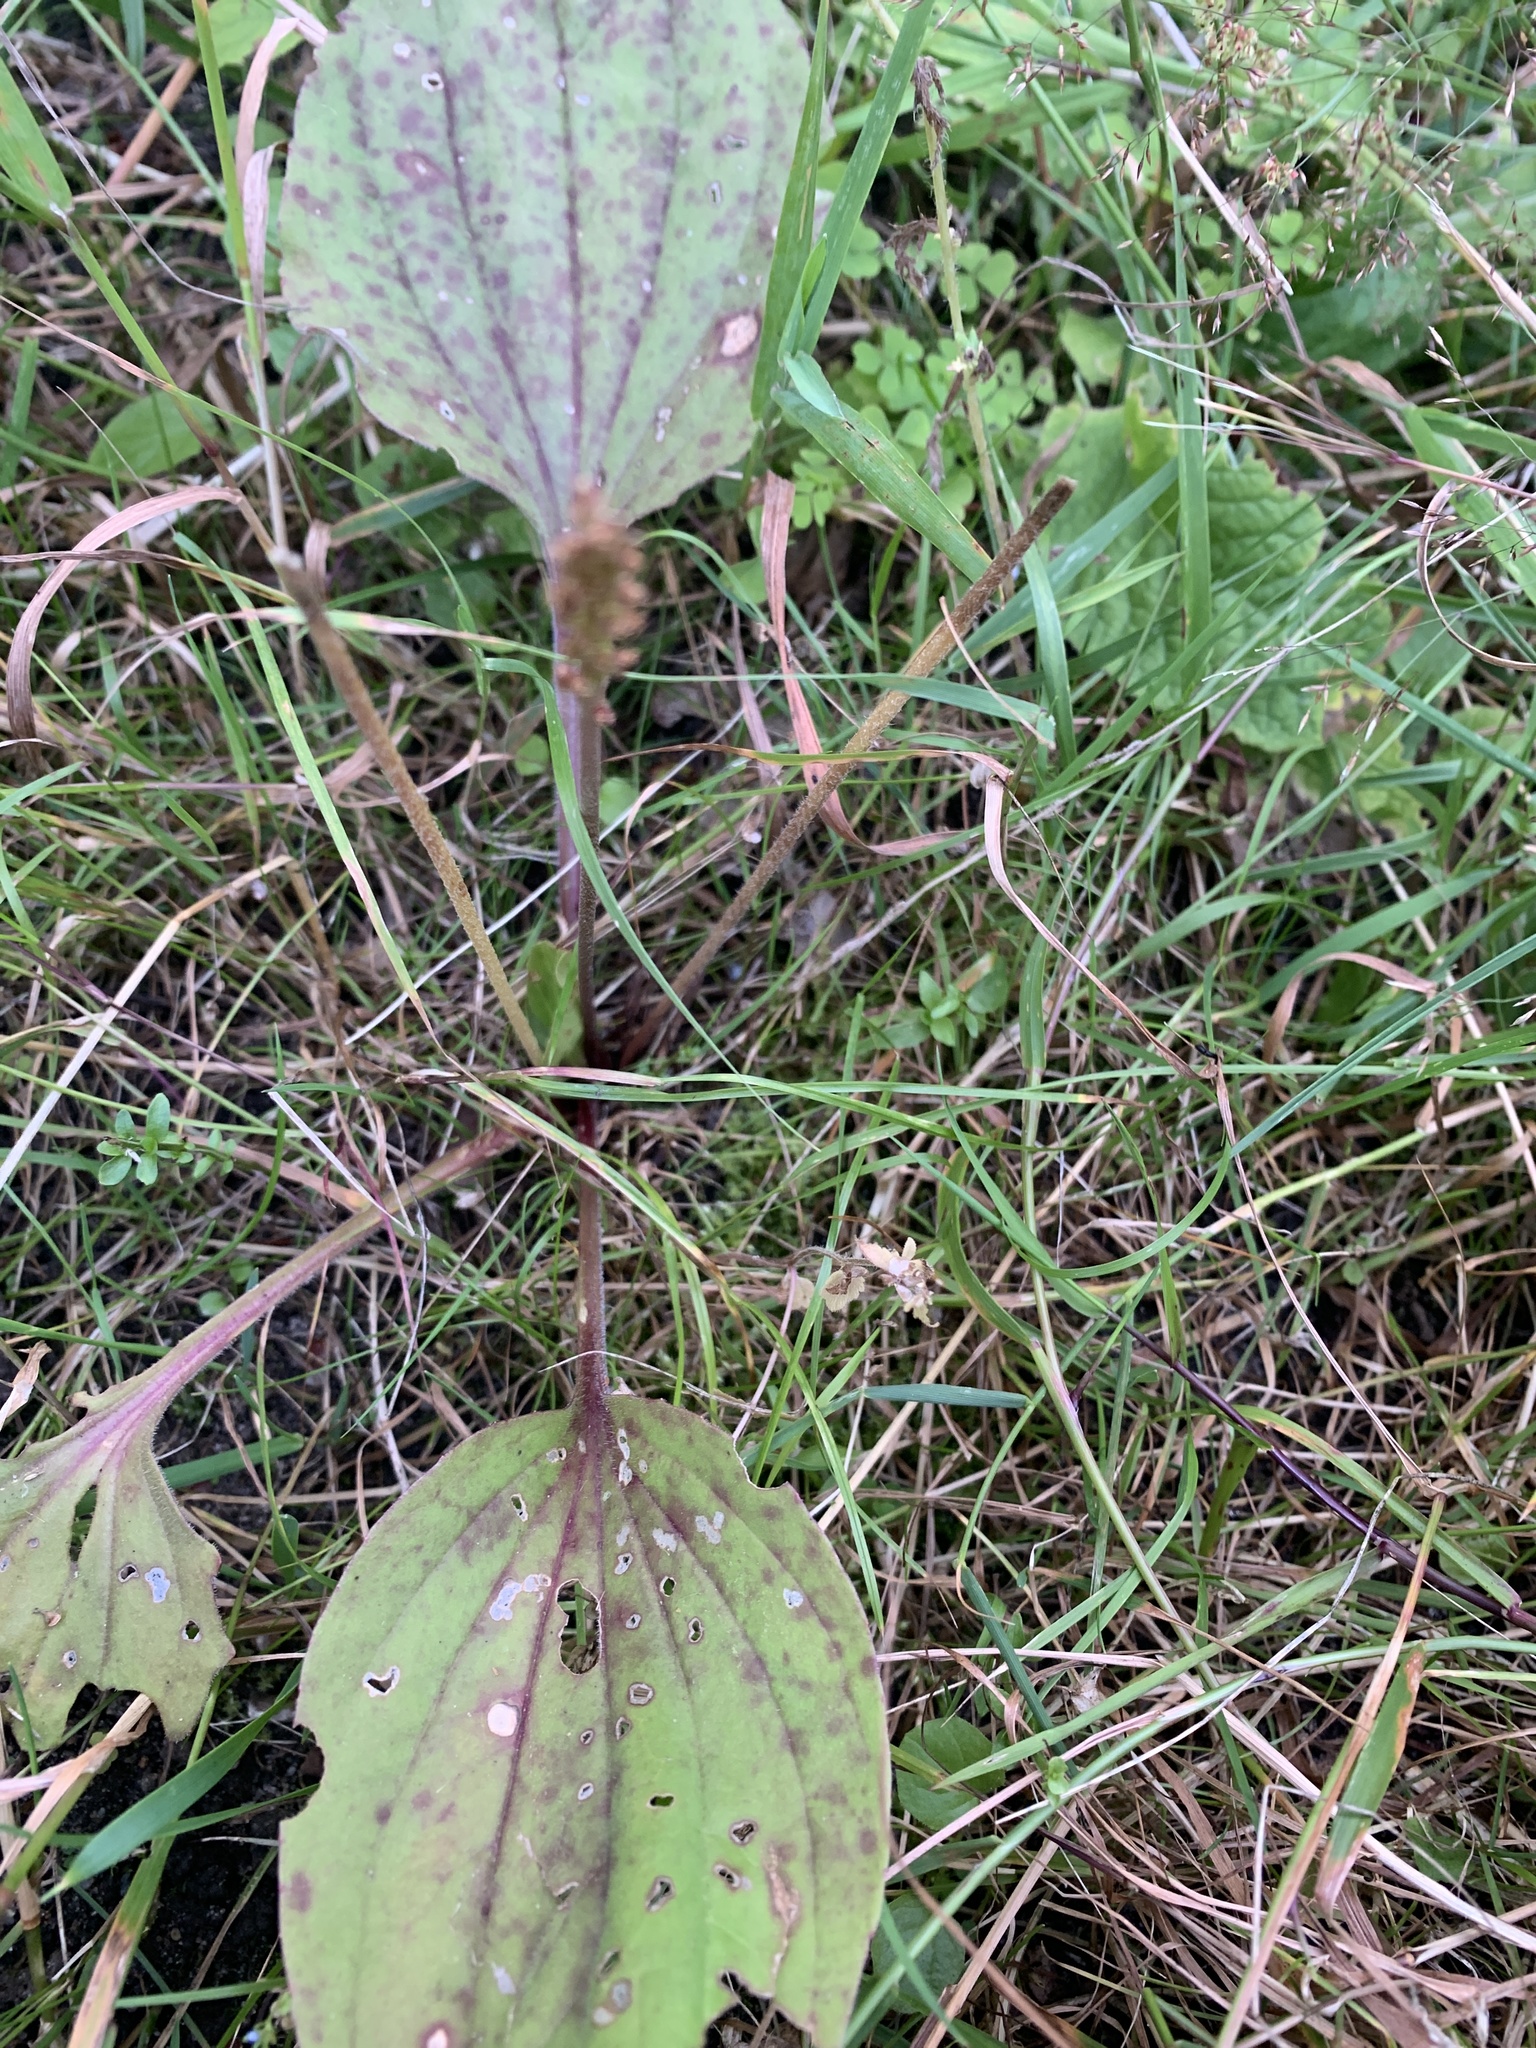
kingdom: Plantae
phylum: Tracheophyta
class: Magnoliopsida
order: Lamiales
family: Plantaginaceae
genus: Plantago
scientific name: Plantago major
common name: Common plantain
